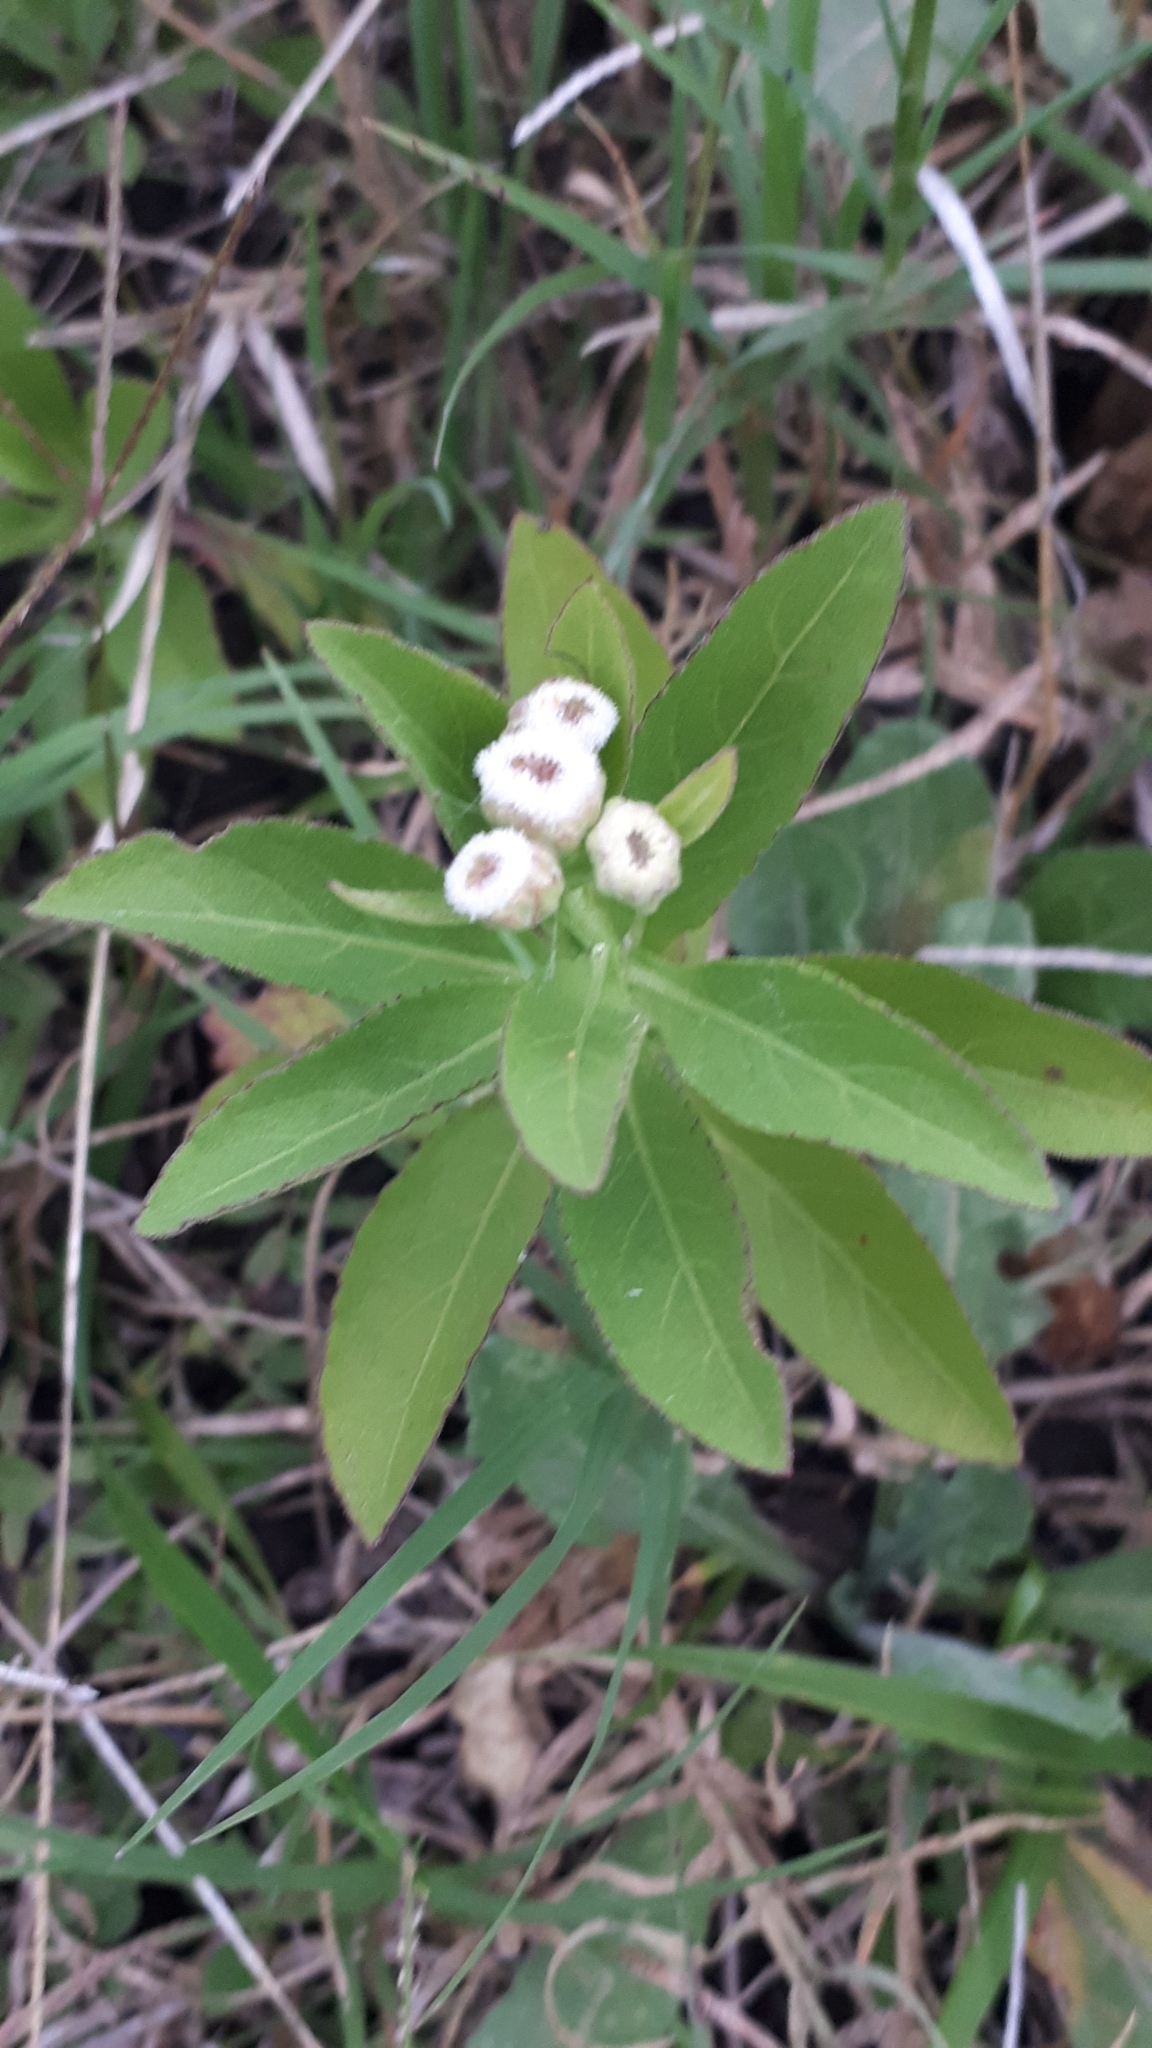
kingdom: Plantae
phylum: Tracheophyta
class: Magnoliopsida
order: Asterales
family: Asteraceae
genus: Pluchea
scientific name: Pluchea sagittalis
